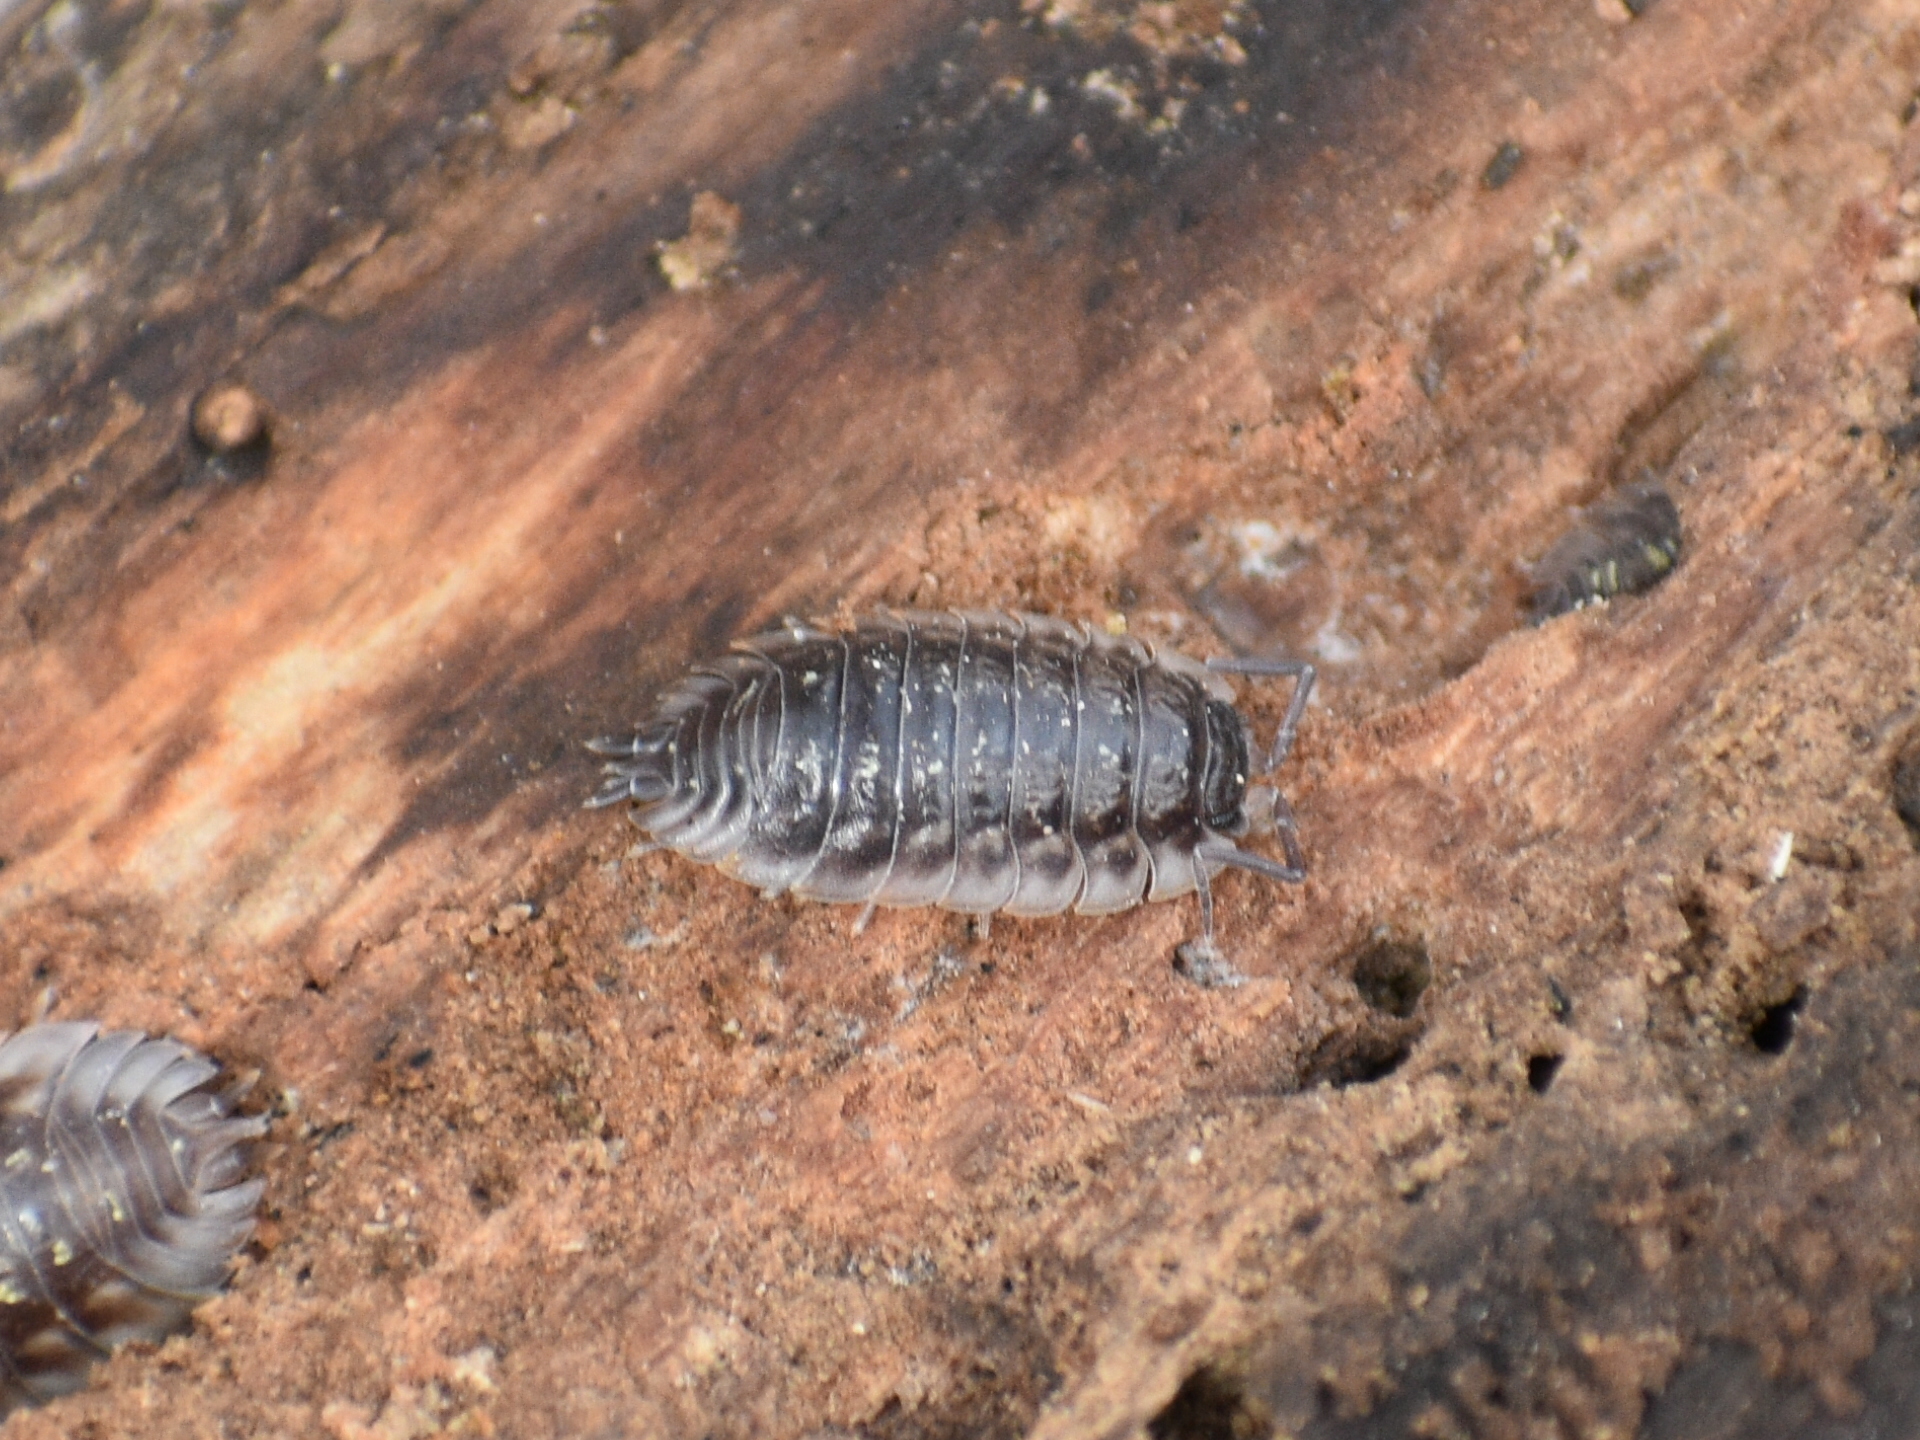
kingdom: Animalia
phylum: Arthropoda
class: Malacostraca
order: Isopoda
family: Oniscidae
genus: Oniscus
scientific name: Oniscus asellus
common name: Common shiny woodlouse
